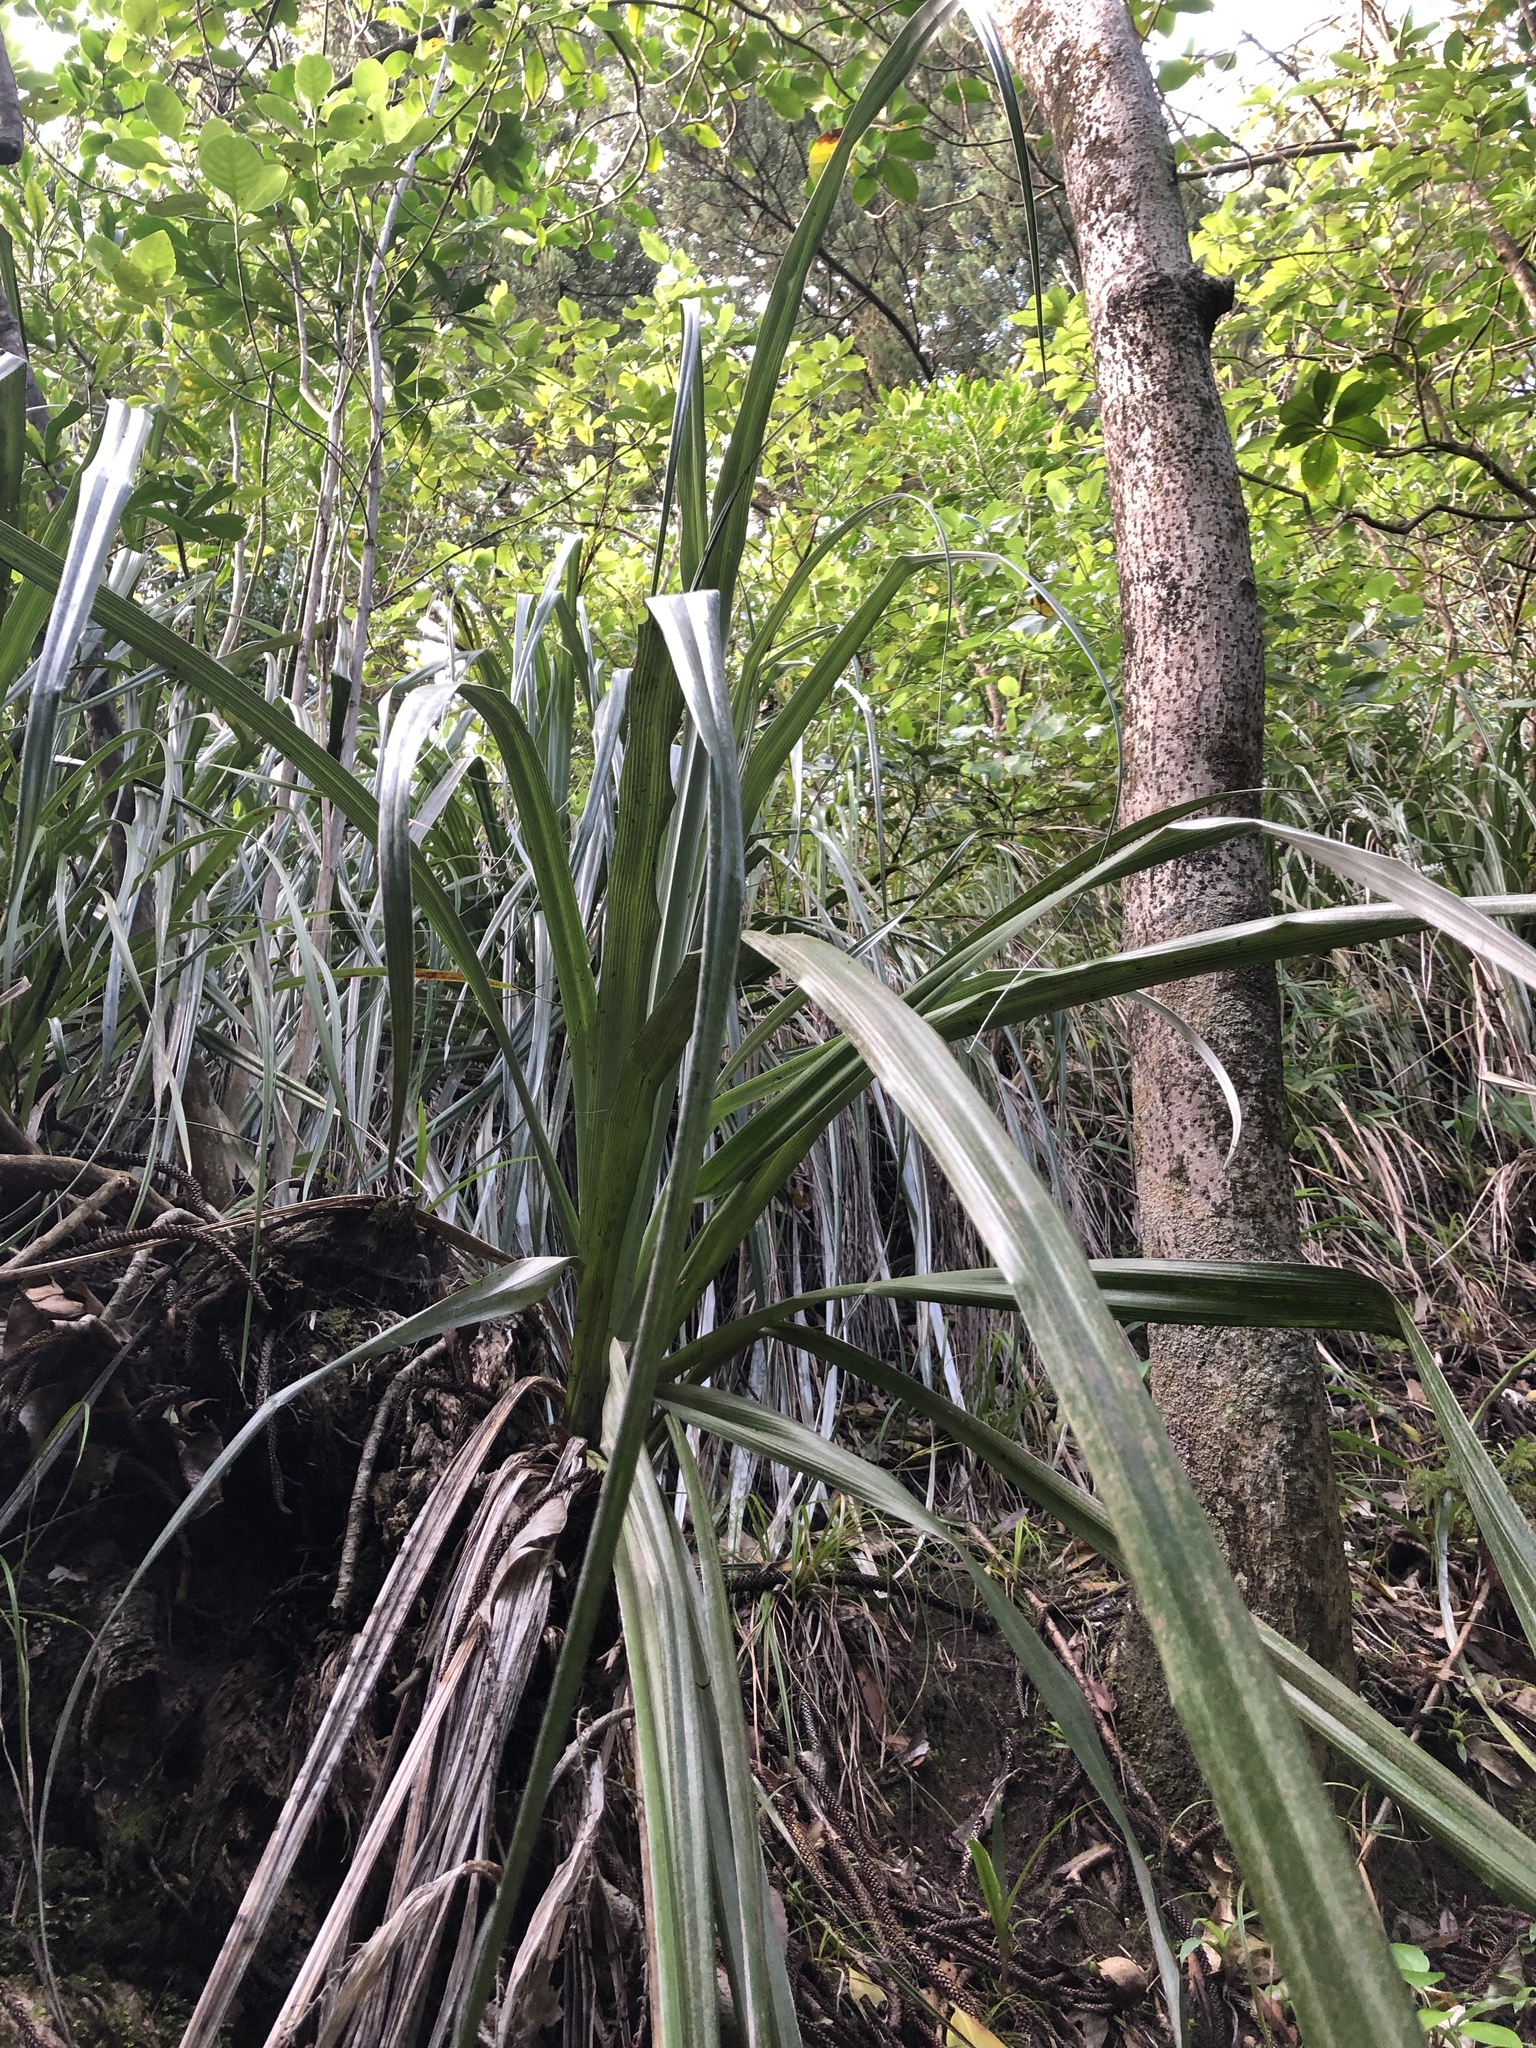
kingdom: Plantae
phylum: Tracheophyta
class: Liliopsida
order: Asparagales
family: Asteliaceae
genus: Astelia
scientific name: Astelia banksii
